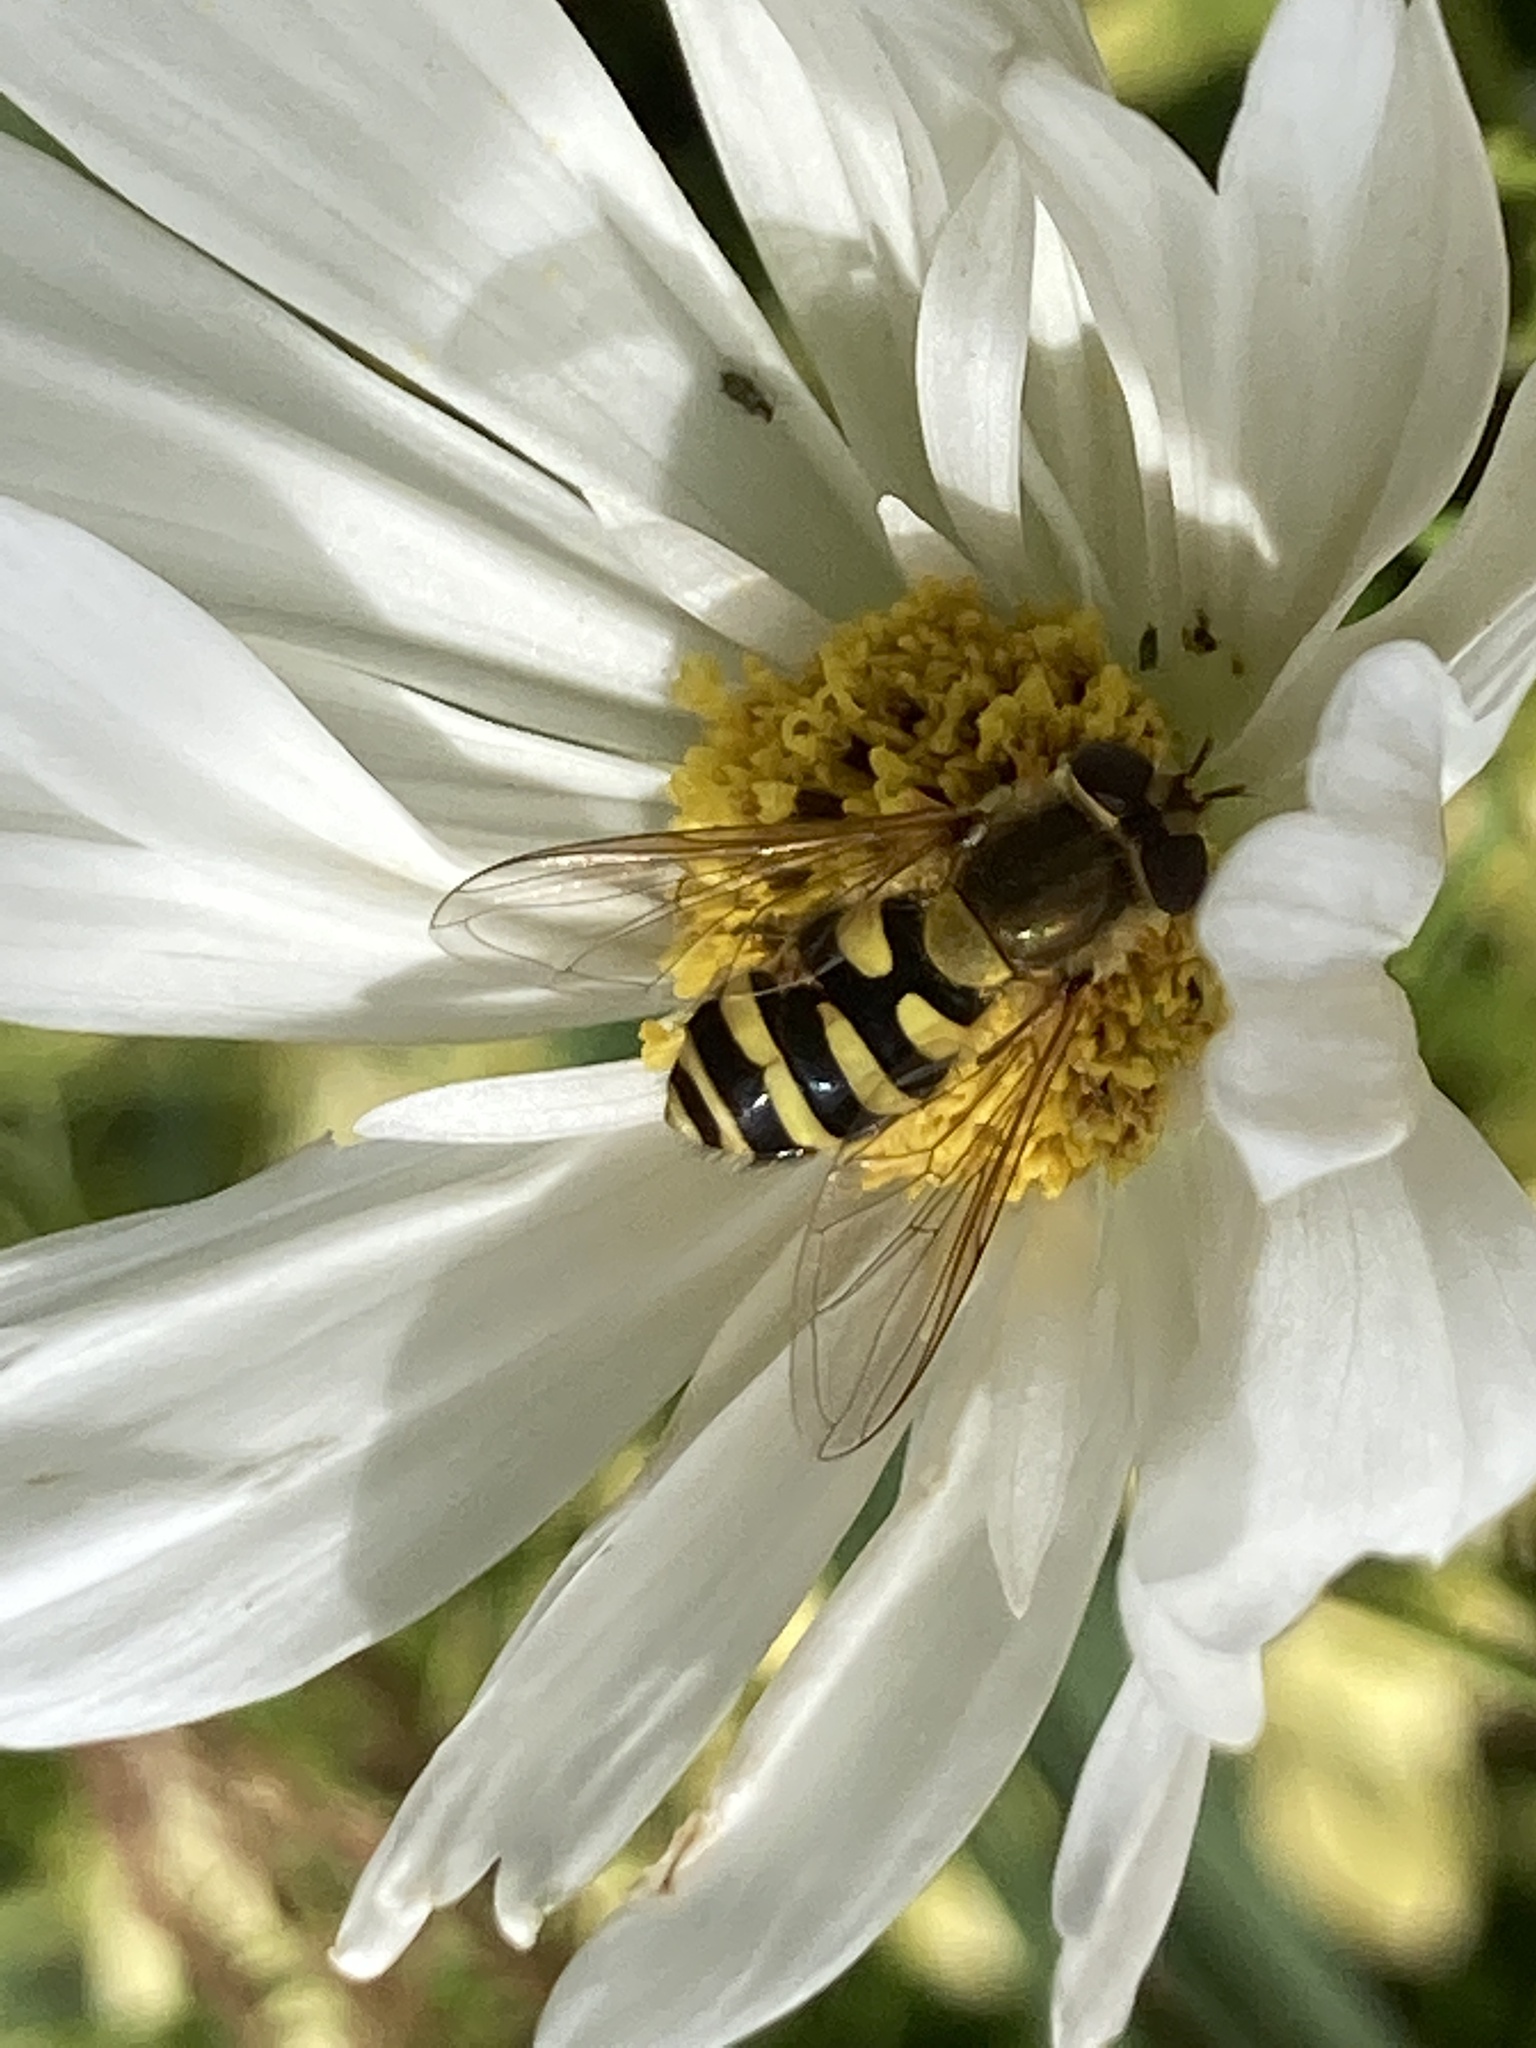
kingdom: Animalia
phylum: Arthropoda
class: Insecta
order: Diptera
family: Syrphidae
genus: Syrphus
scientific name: Syrphus
